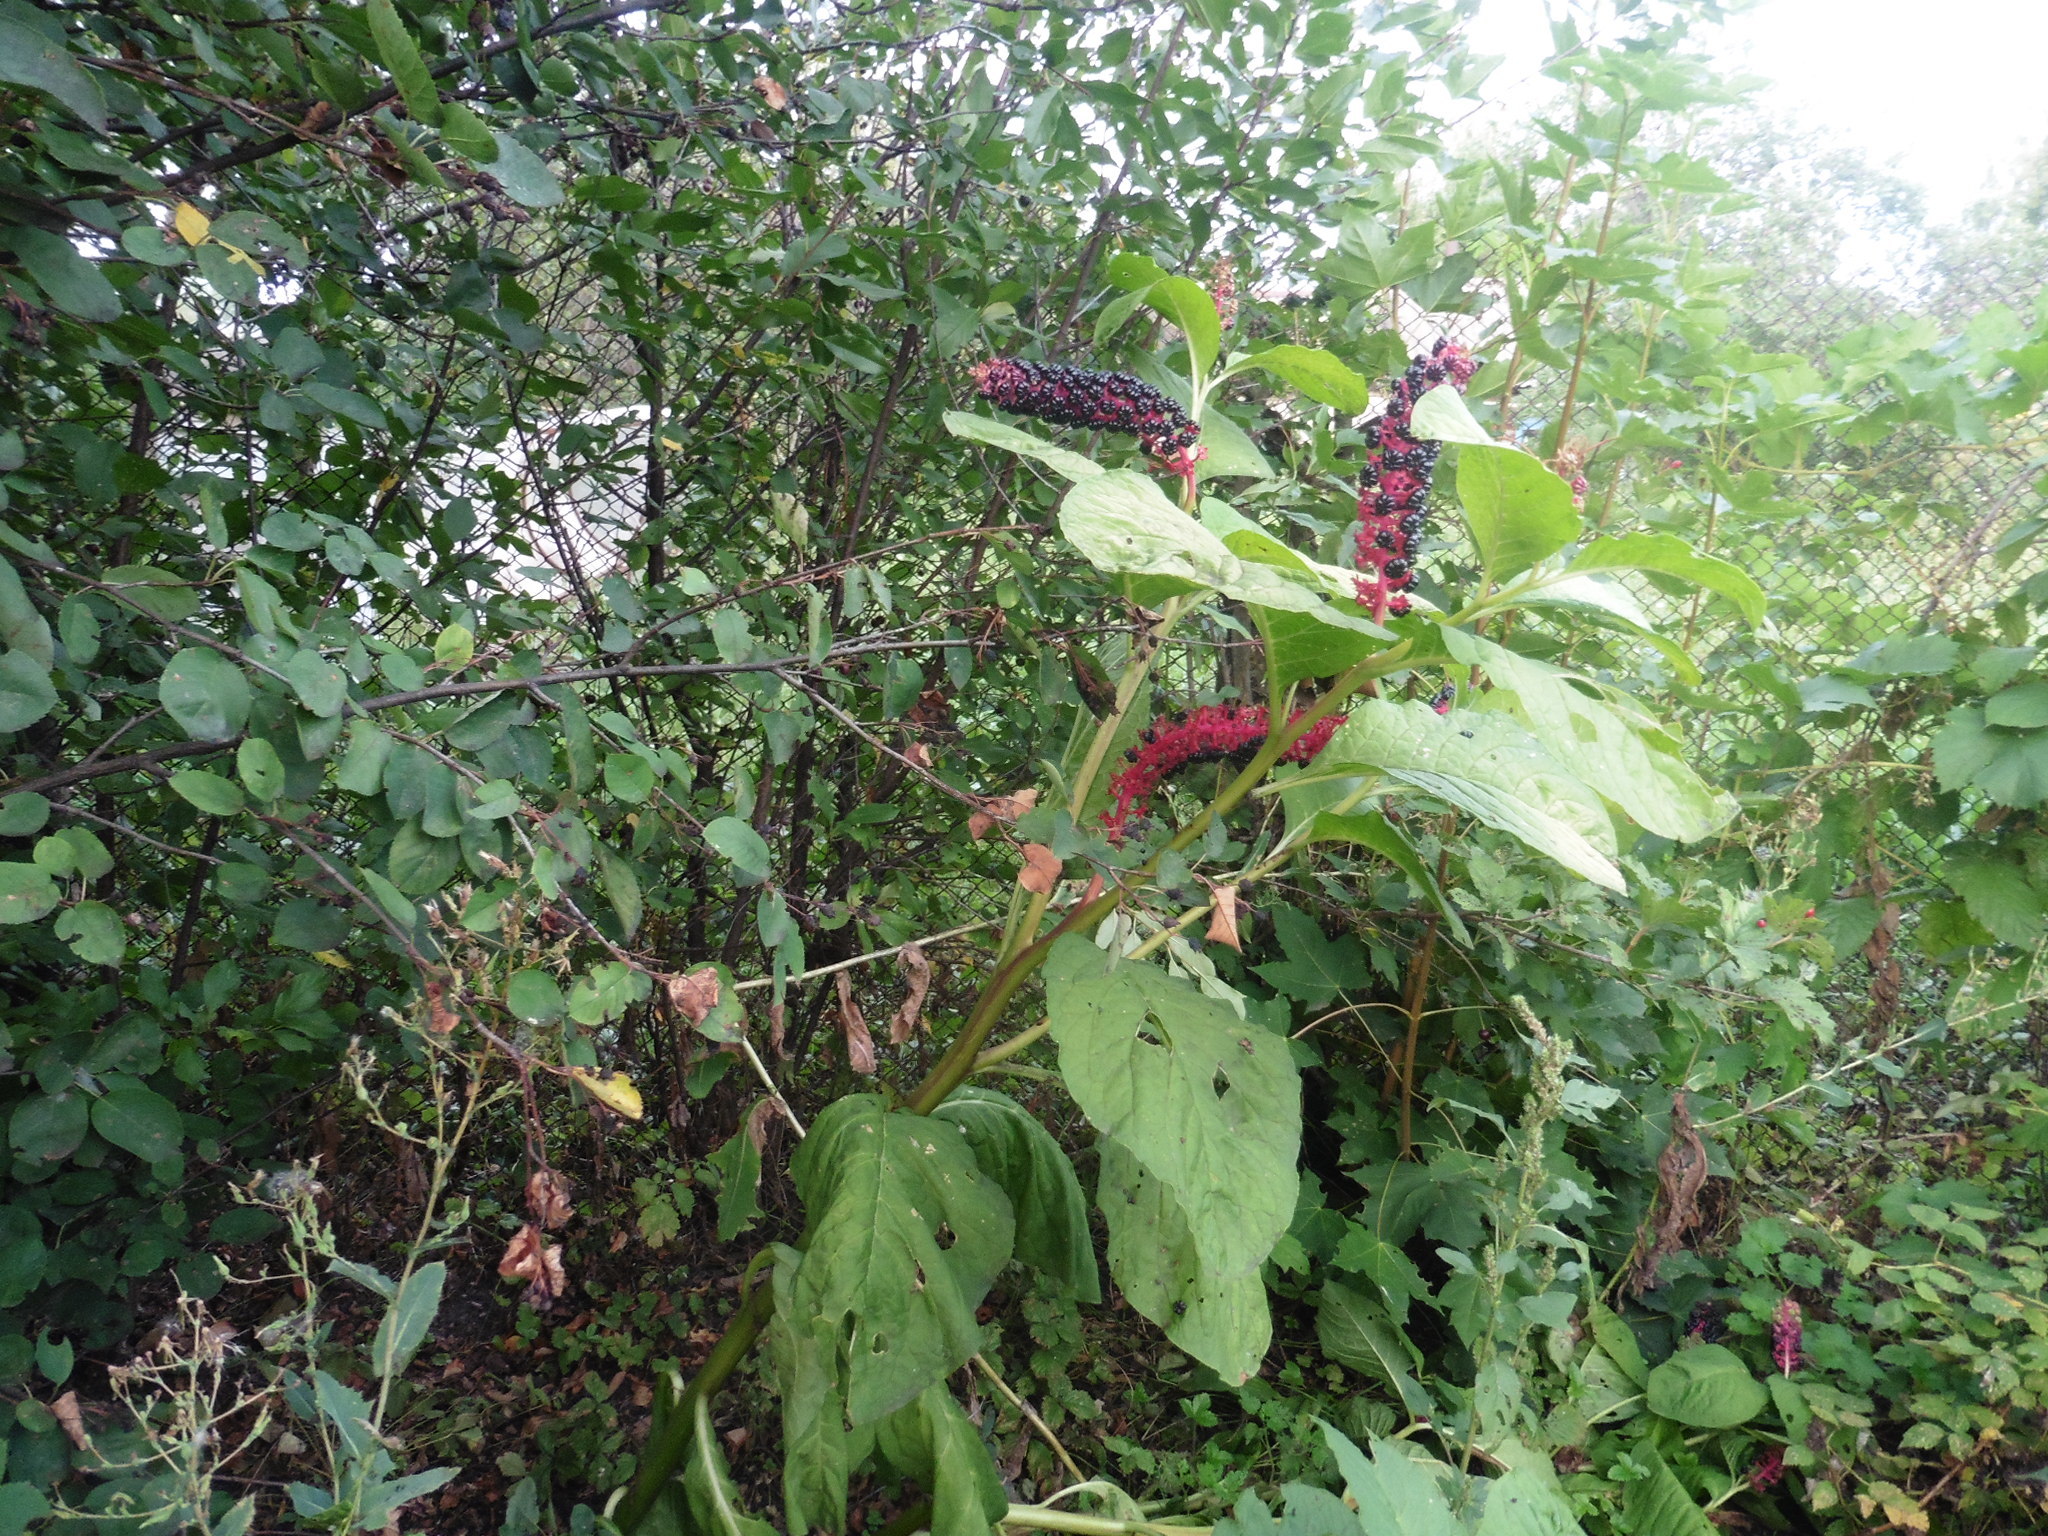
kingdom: Plantae
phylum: Tracheophyta
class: Magnoliopsida
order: Caryophyllales
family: Phytolaccaceae
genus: Phytolacca
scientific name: Phytolacca acinosa
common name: Indian pokeweed
